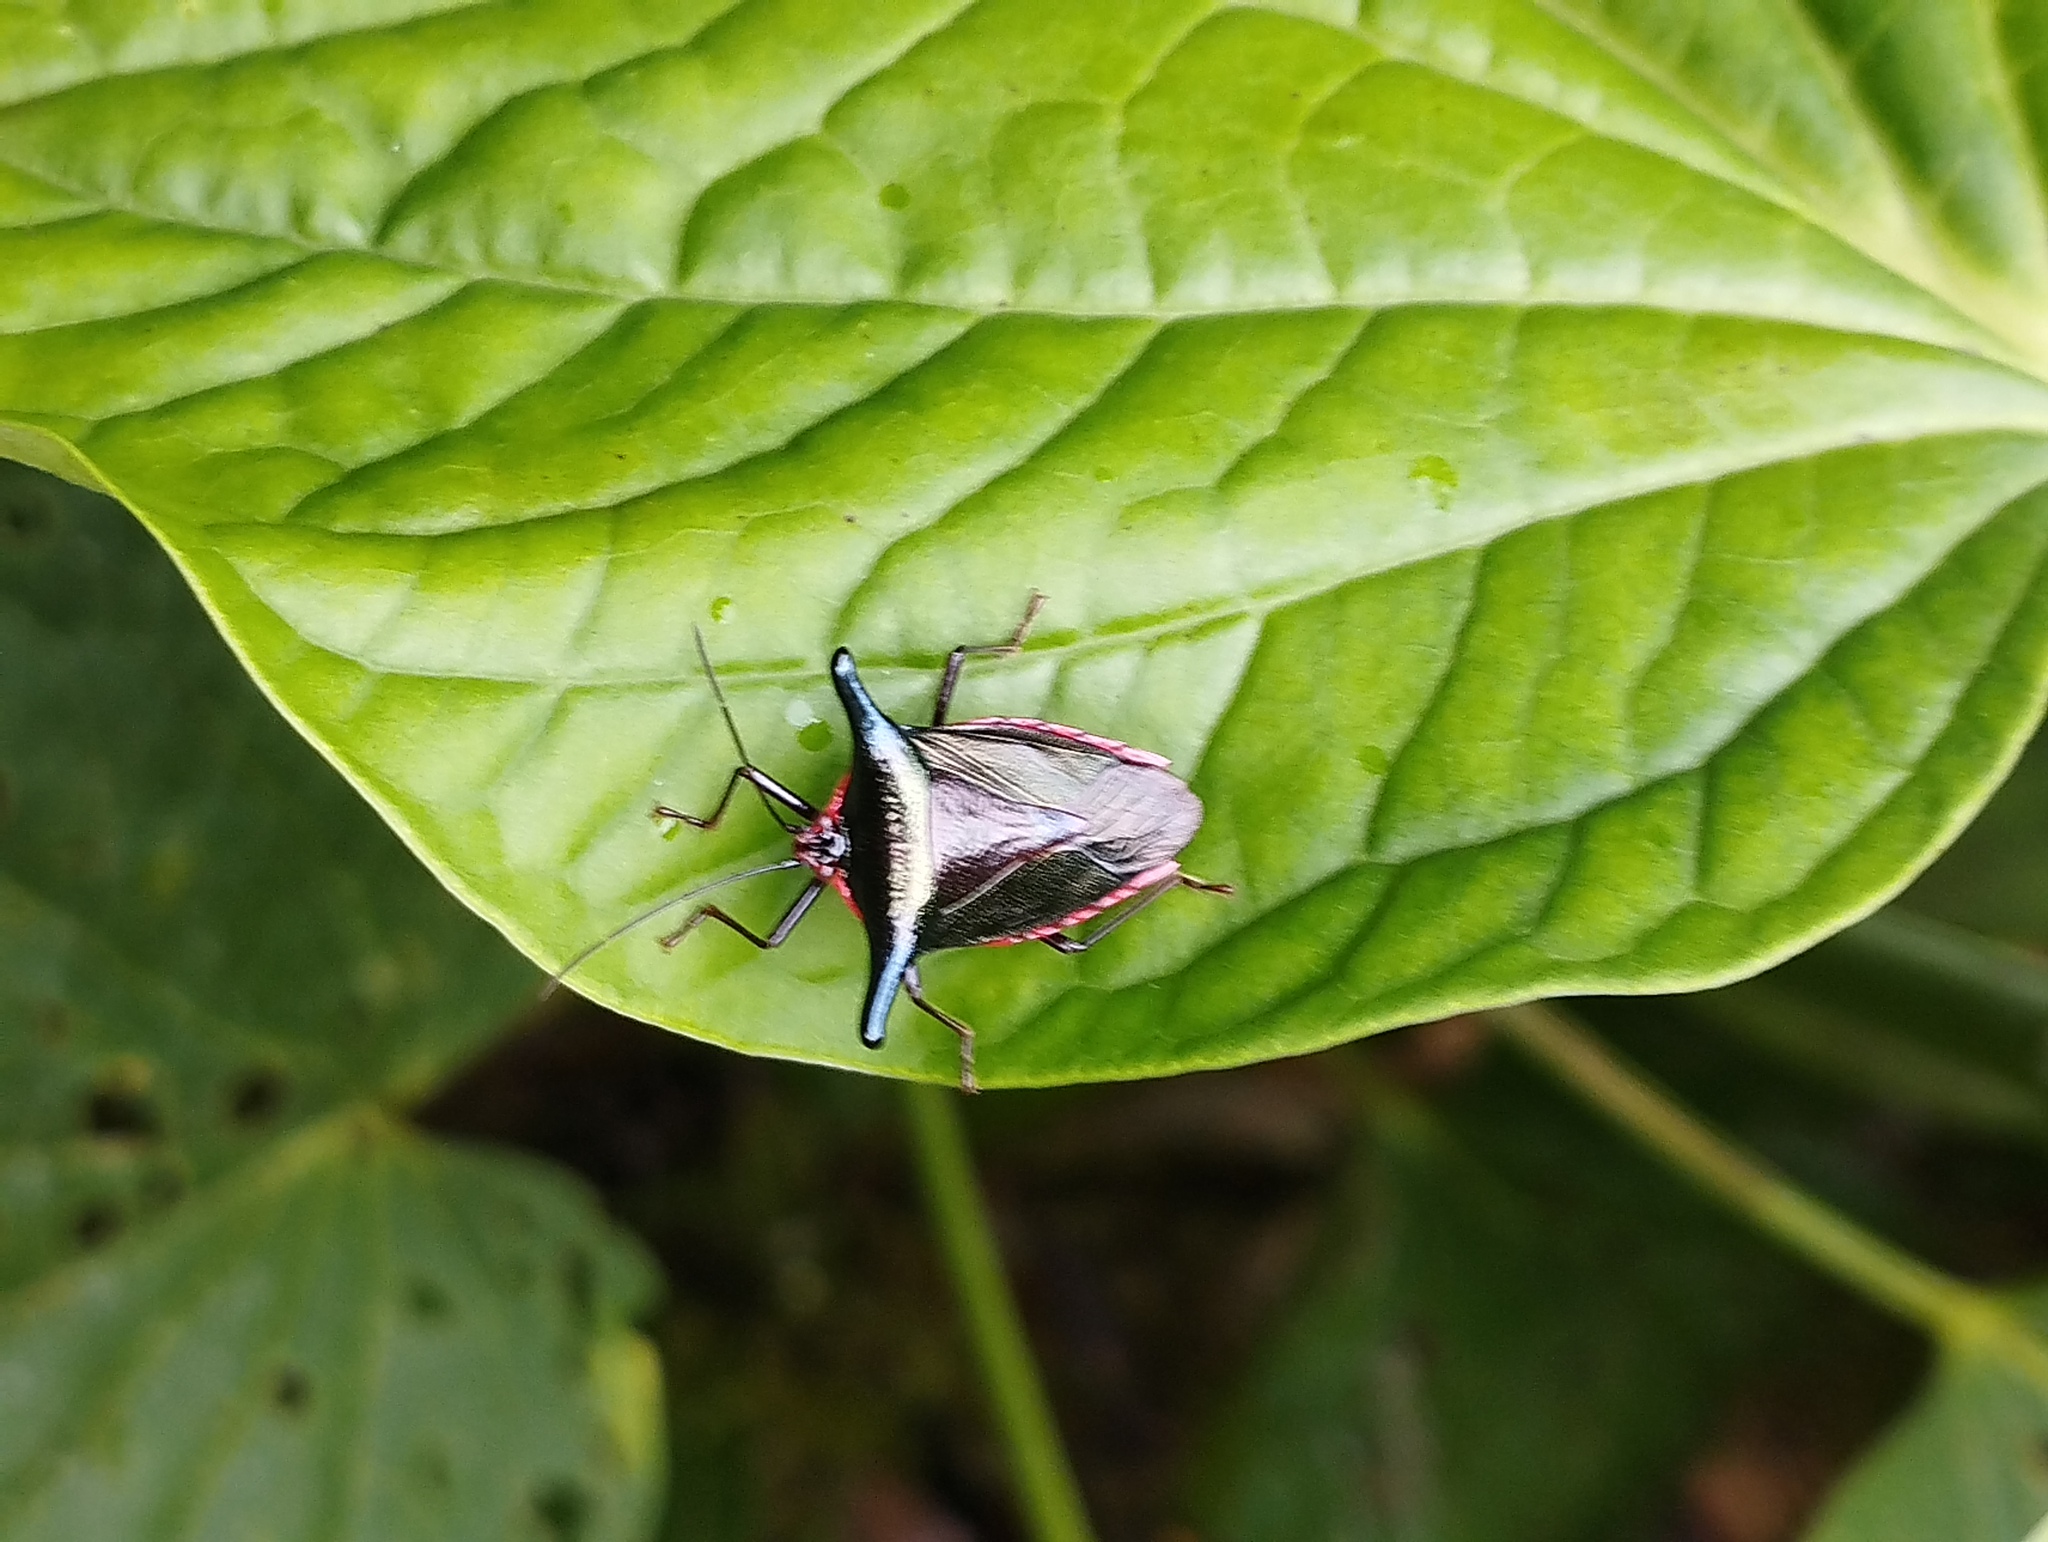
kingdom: Animalia
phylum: Arthropoda
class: Insecta
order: Hemiptera
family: Pentatomidae
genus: Edessa
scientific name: Edessa splendens
